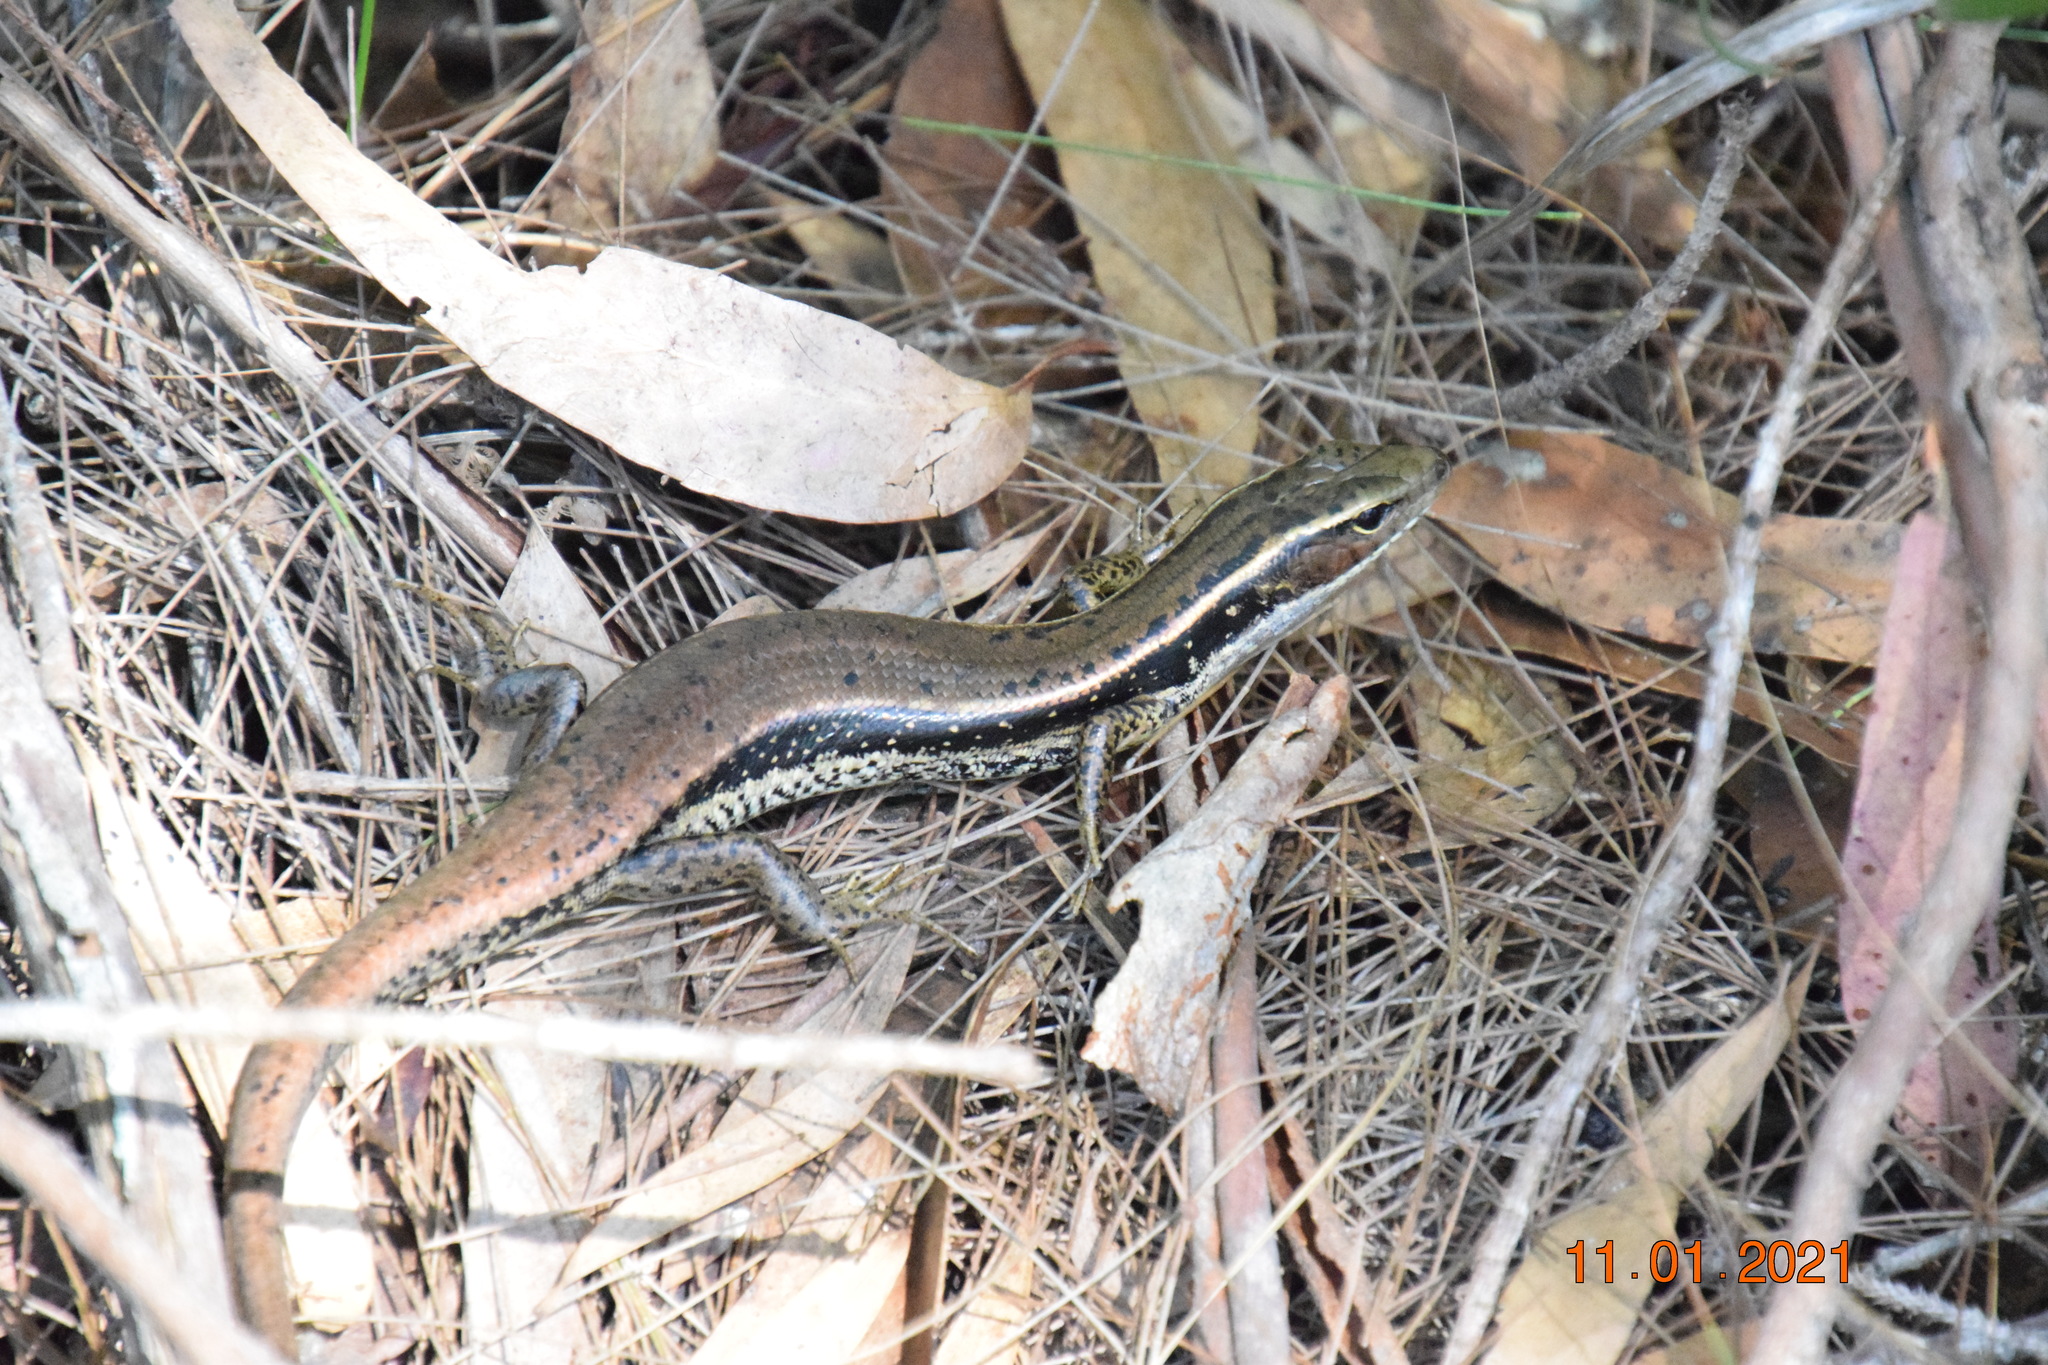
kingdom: Animalia
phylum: Chordata
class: Squamata
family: Scincidae
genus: Eulamprus
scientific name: Eulamprus quoyii
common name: Eastern water skink
